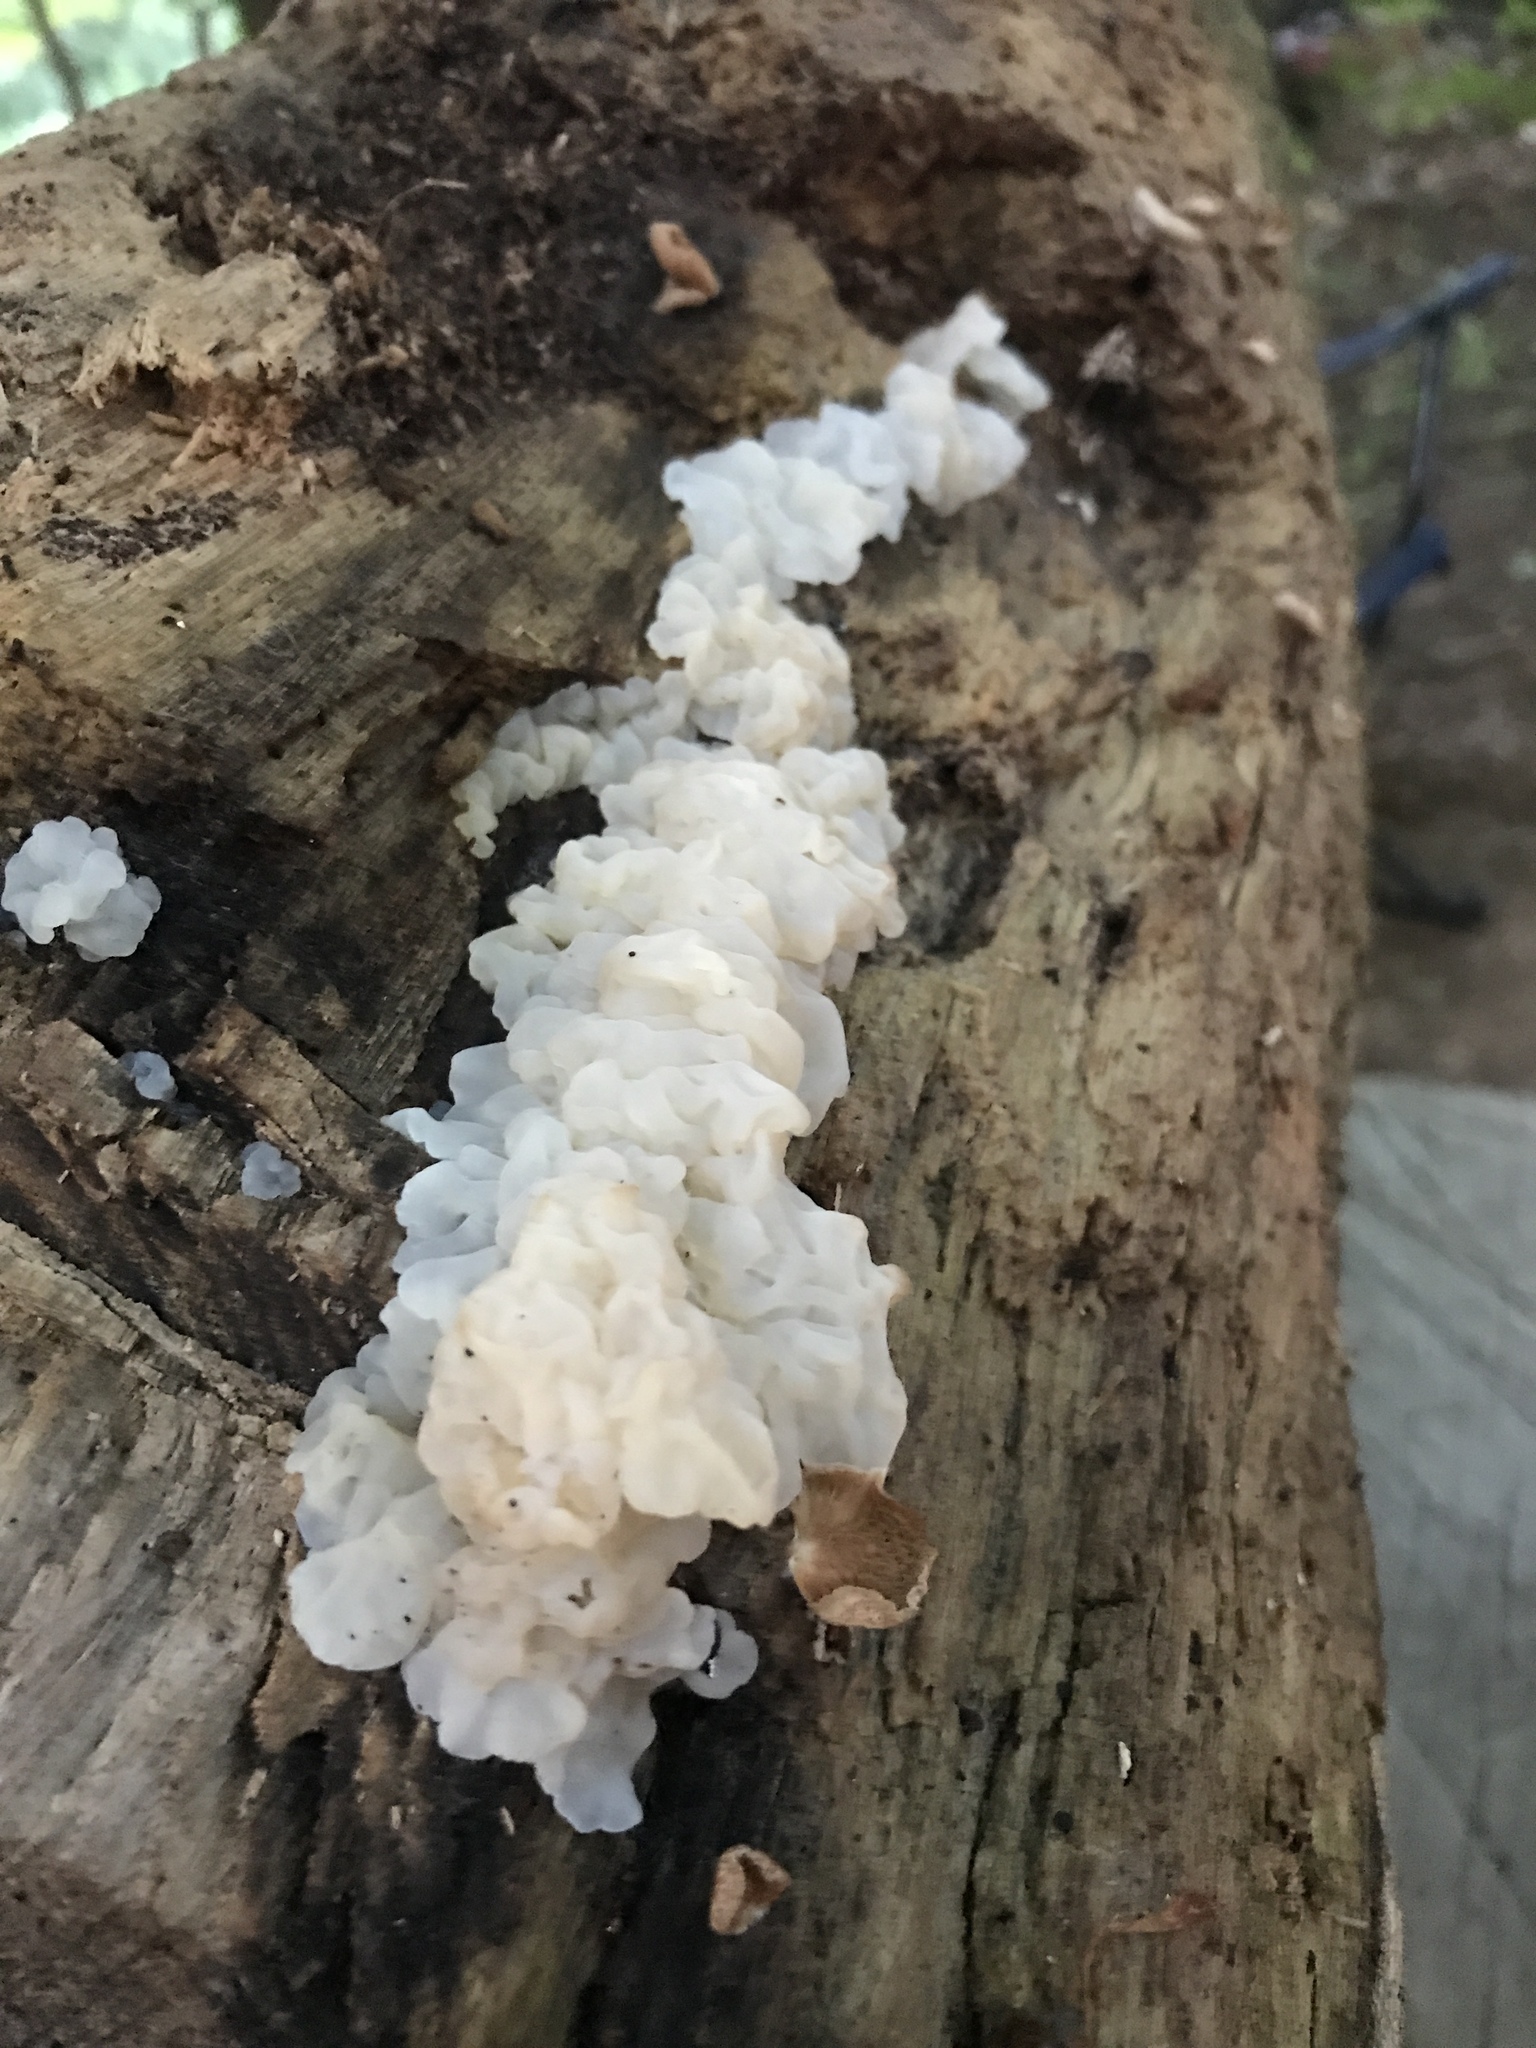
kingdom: Fungi
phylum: Basidiomycota
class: Agaricomycetes
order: Auriculariales
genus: Ductifera
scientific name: Ductifera pululahuana
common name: White jelly fungus
